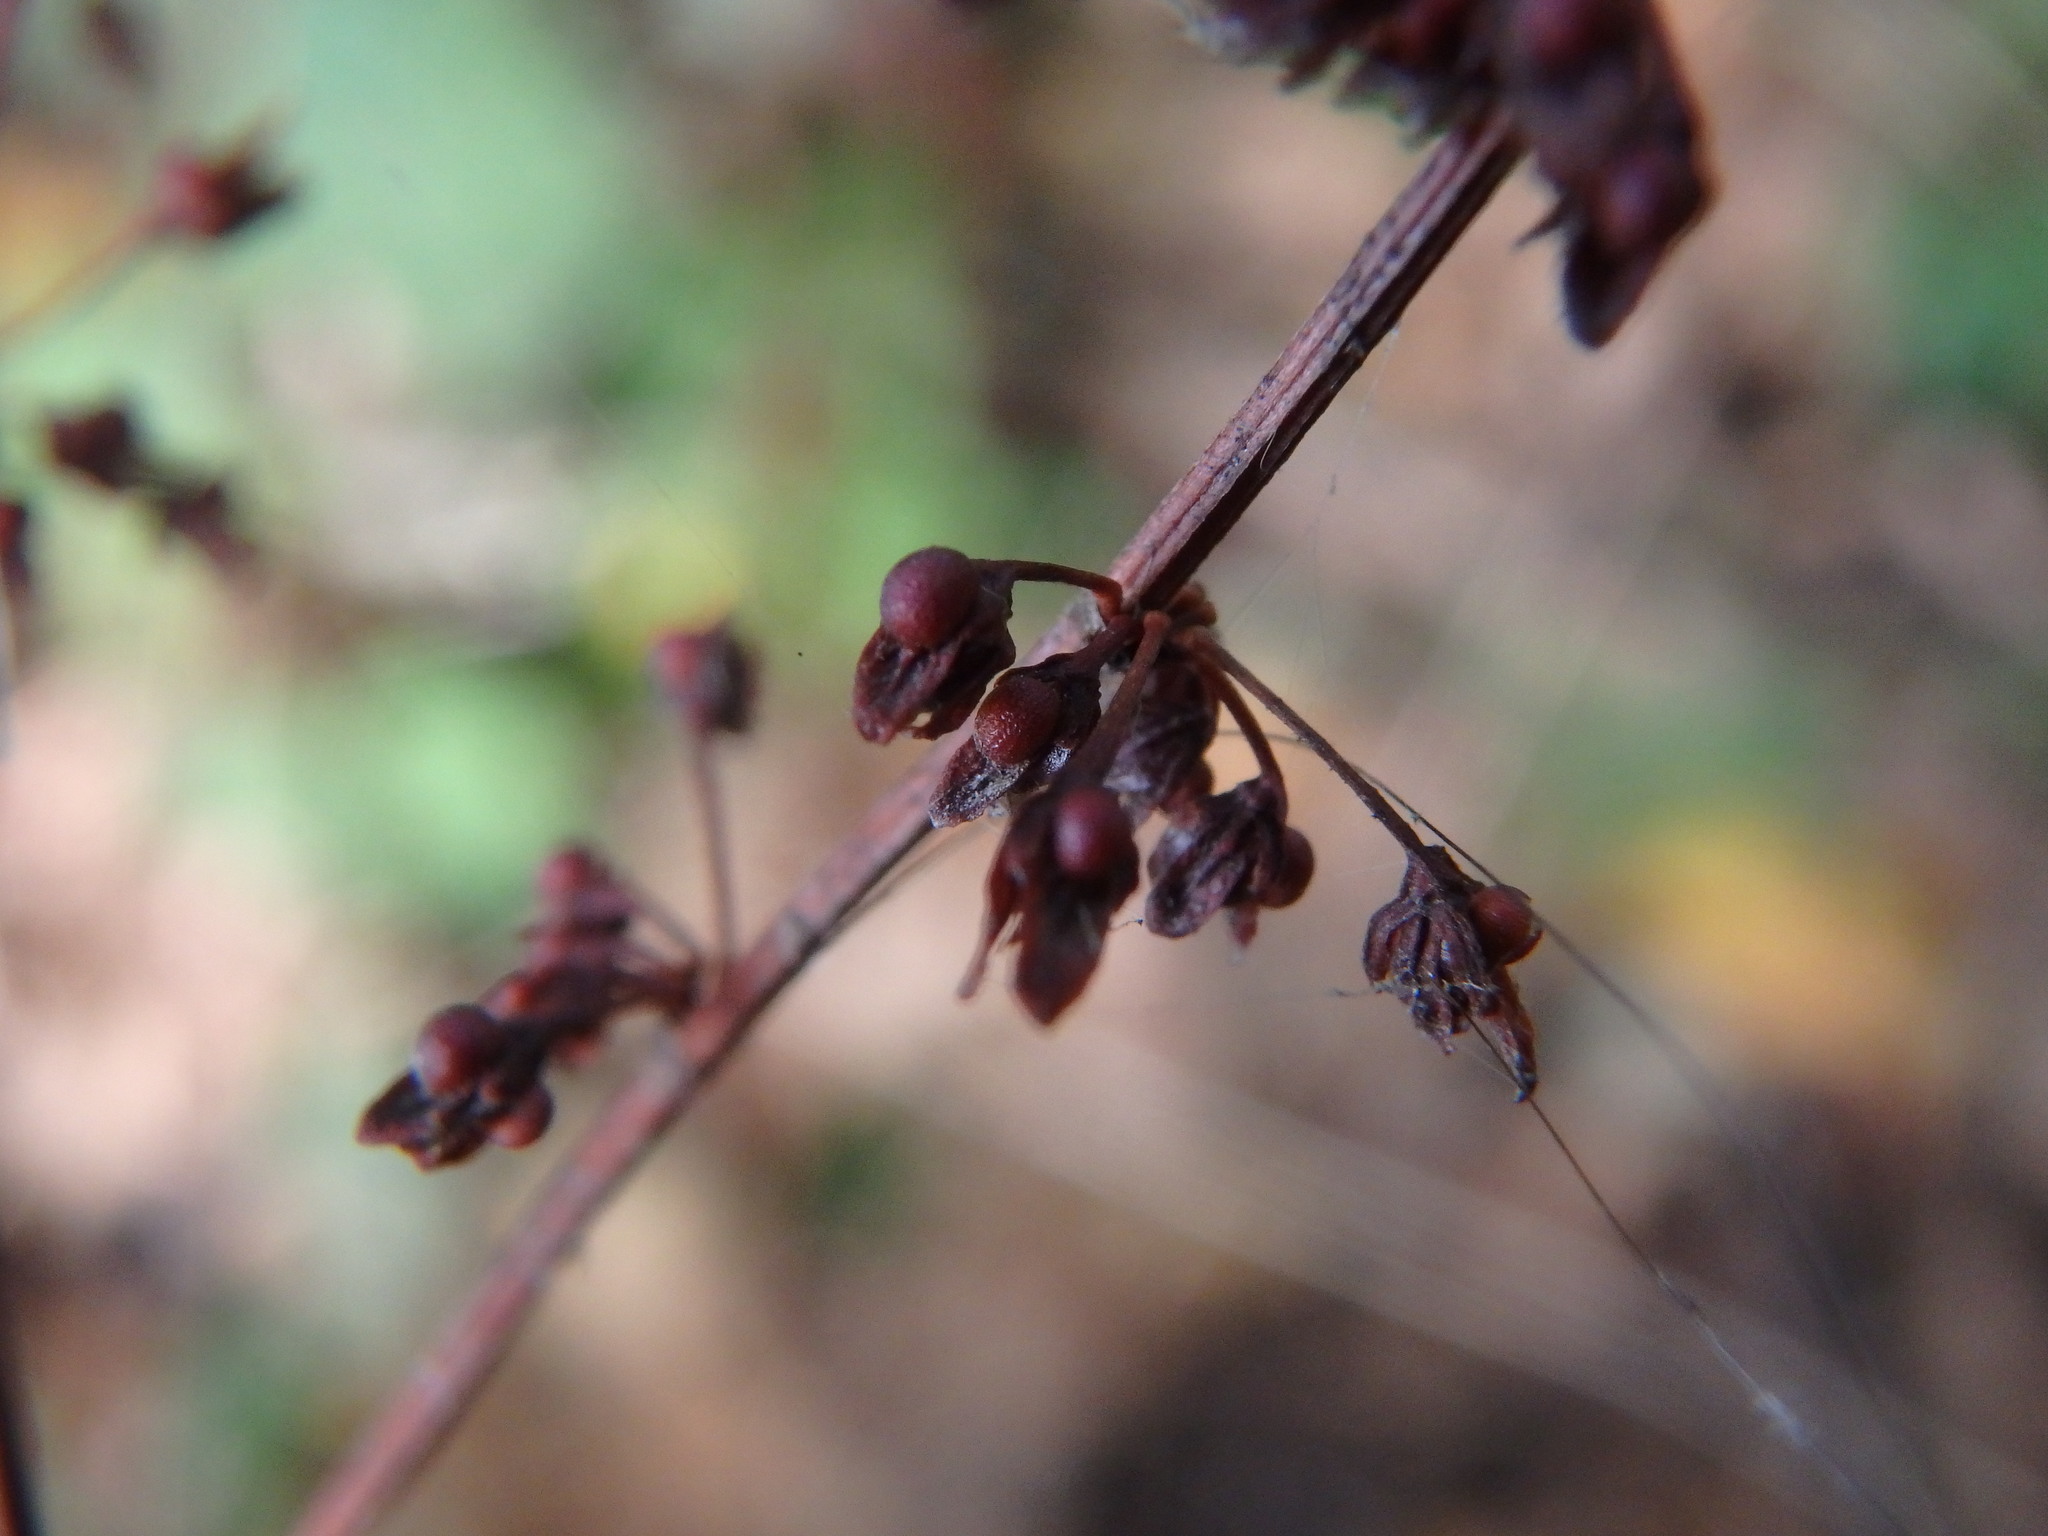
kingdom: Plantae
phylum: Tracheophyta
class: Magnoliopsida
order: Caryophyllales
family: Polygonaceae
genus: Rumex
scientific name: Rumex sanguineus
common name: Wood dock
